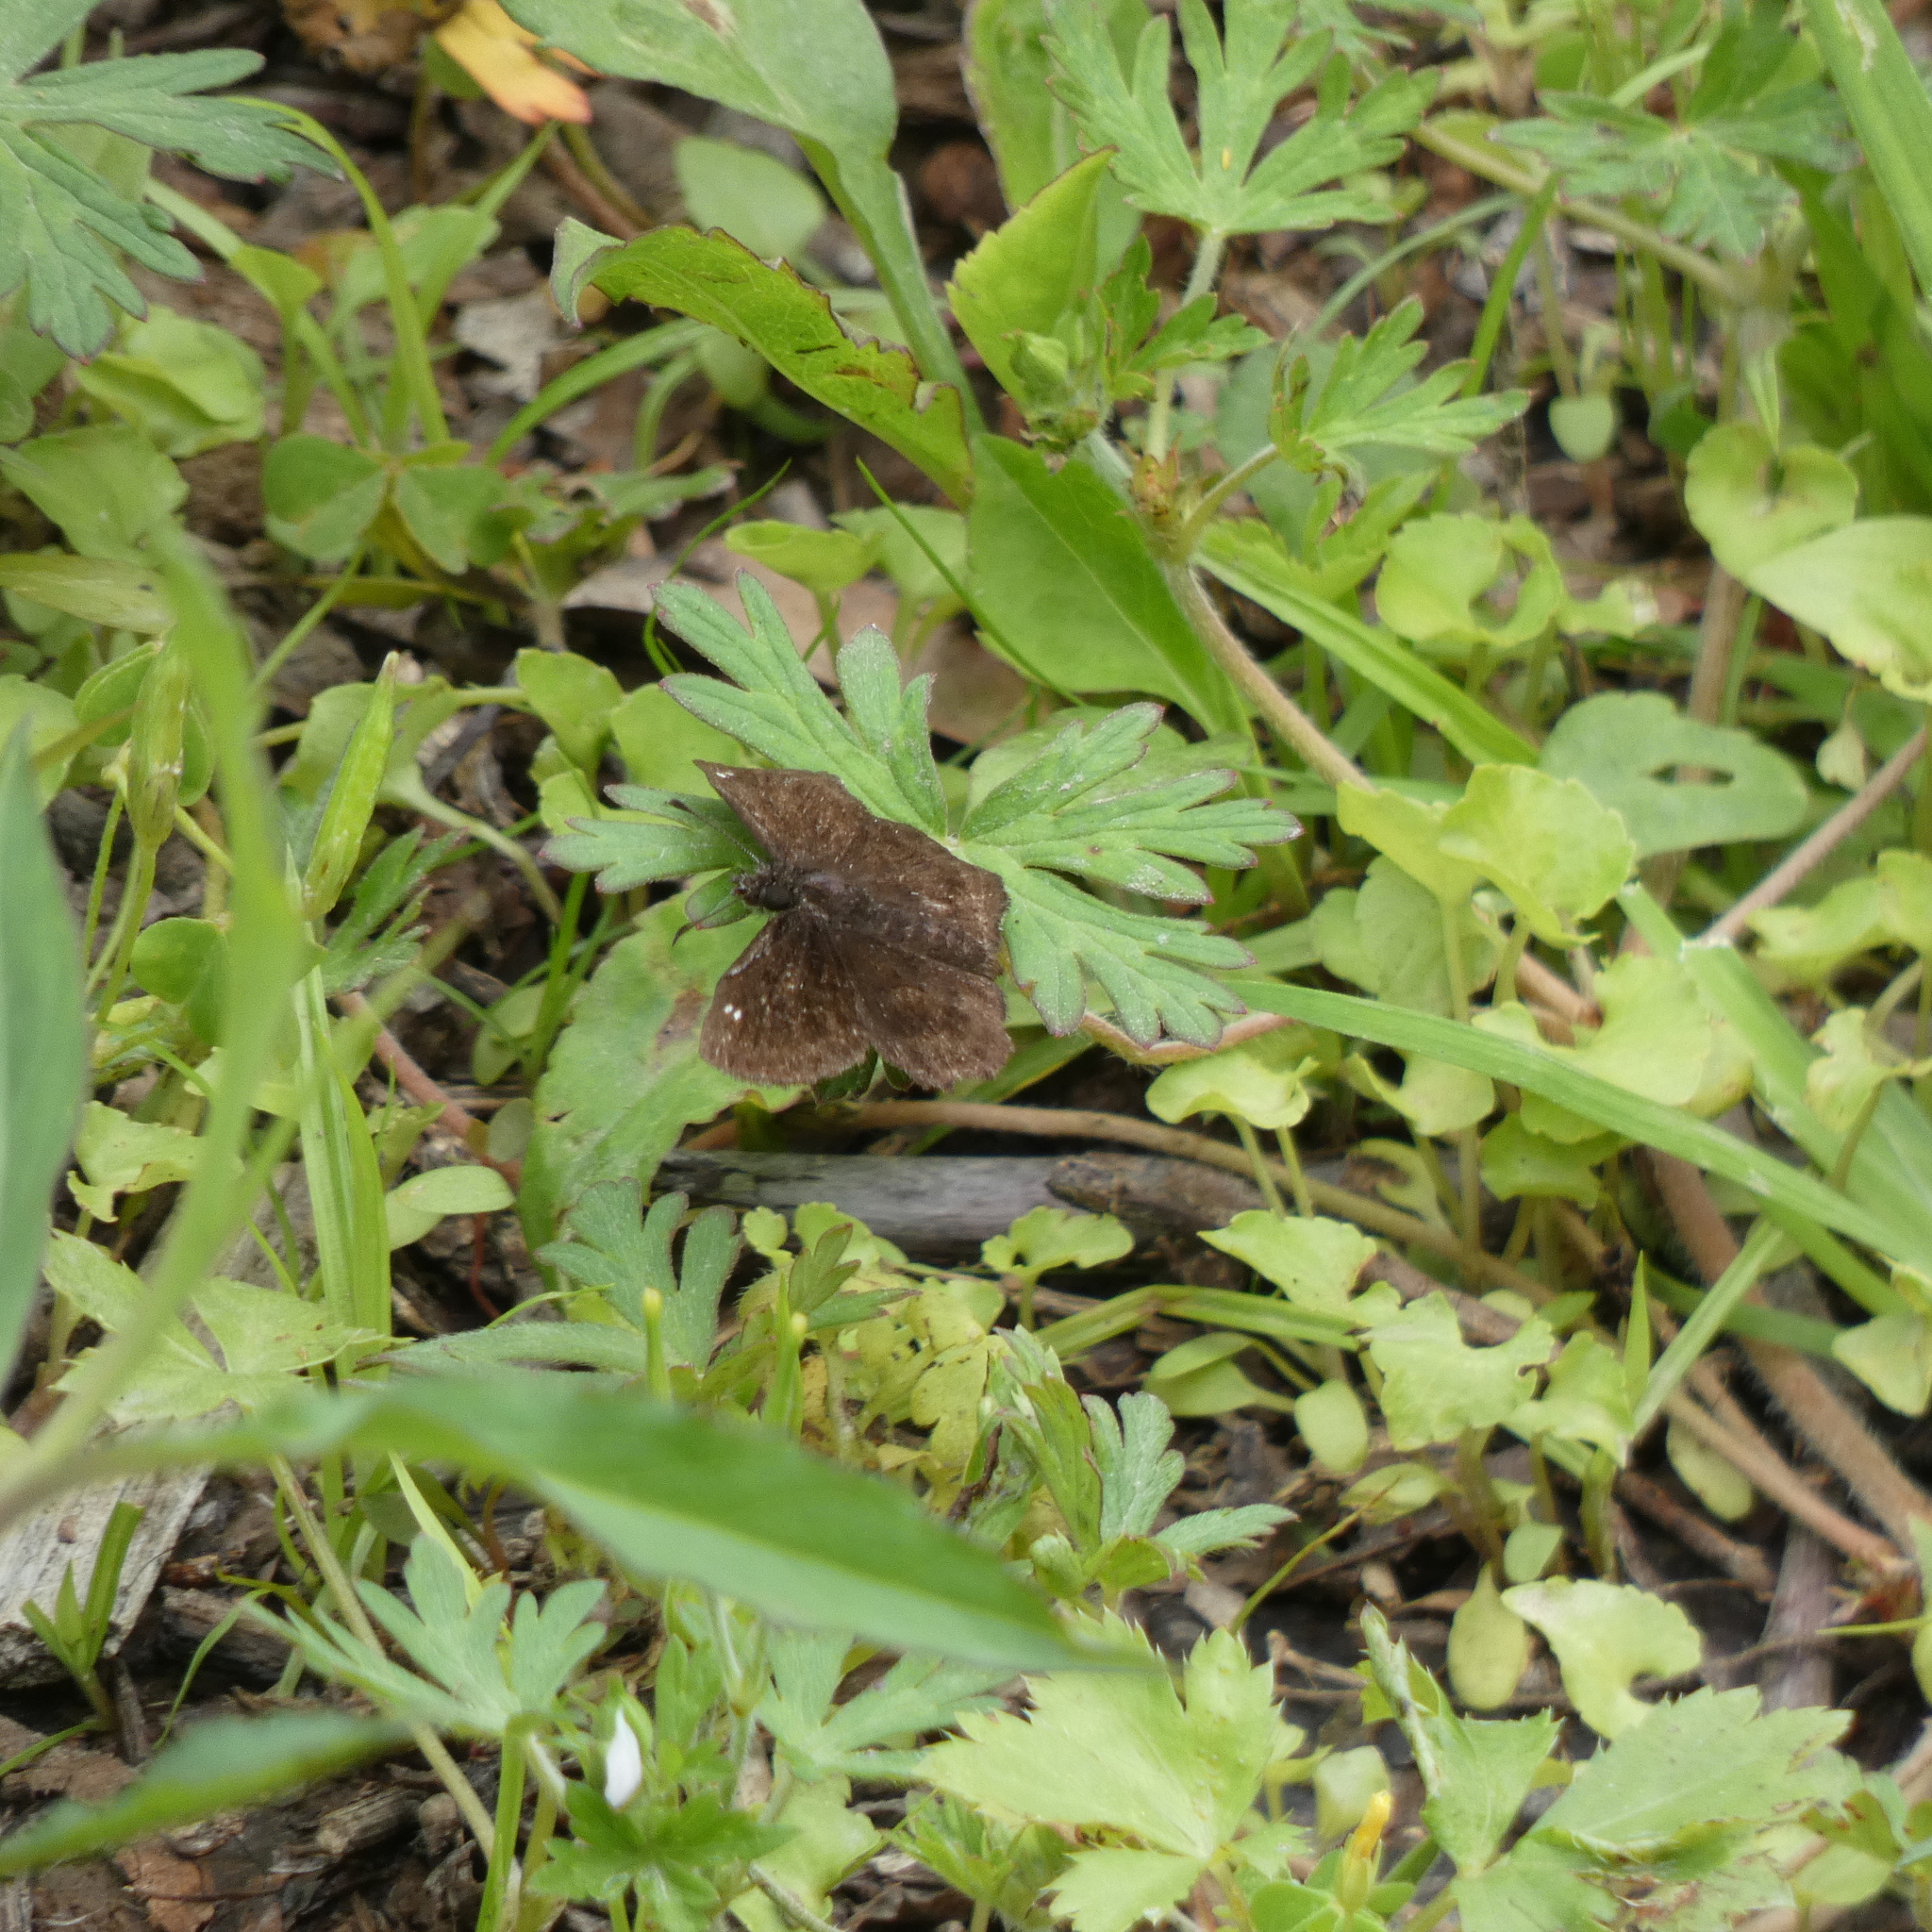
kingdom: Animalia
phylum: Arthropoda
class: Insecta
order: Lepidoptera
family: Hesperiidae
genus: Staphylus
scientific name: Staphylus mazans
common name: Mazans scallopwing
